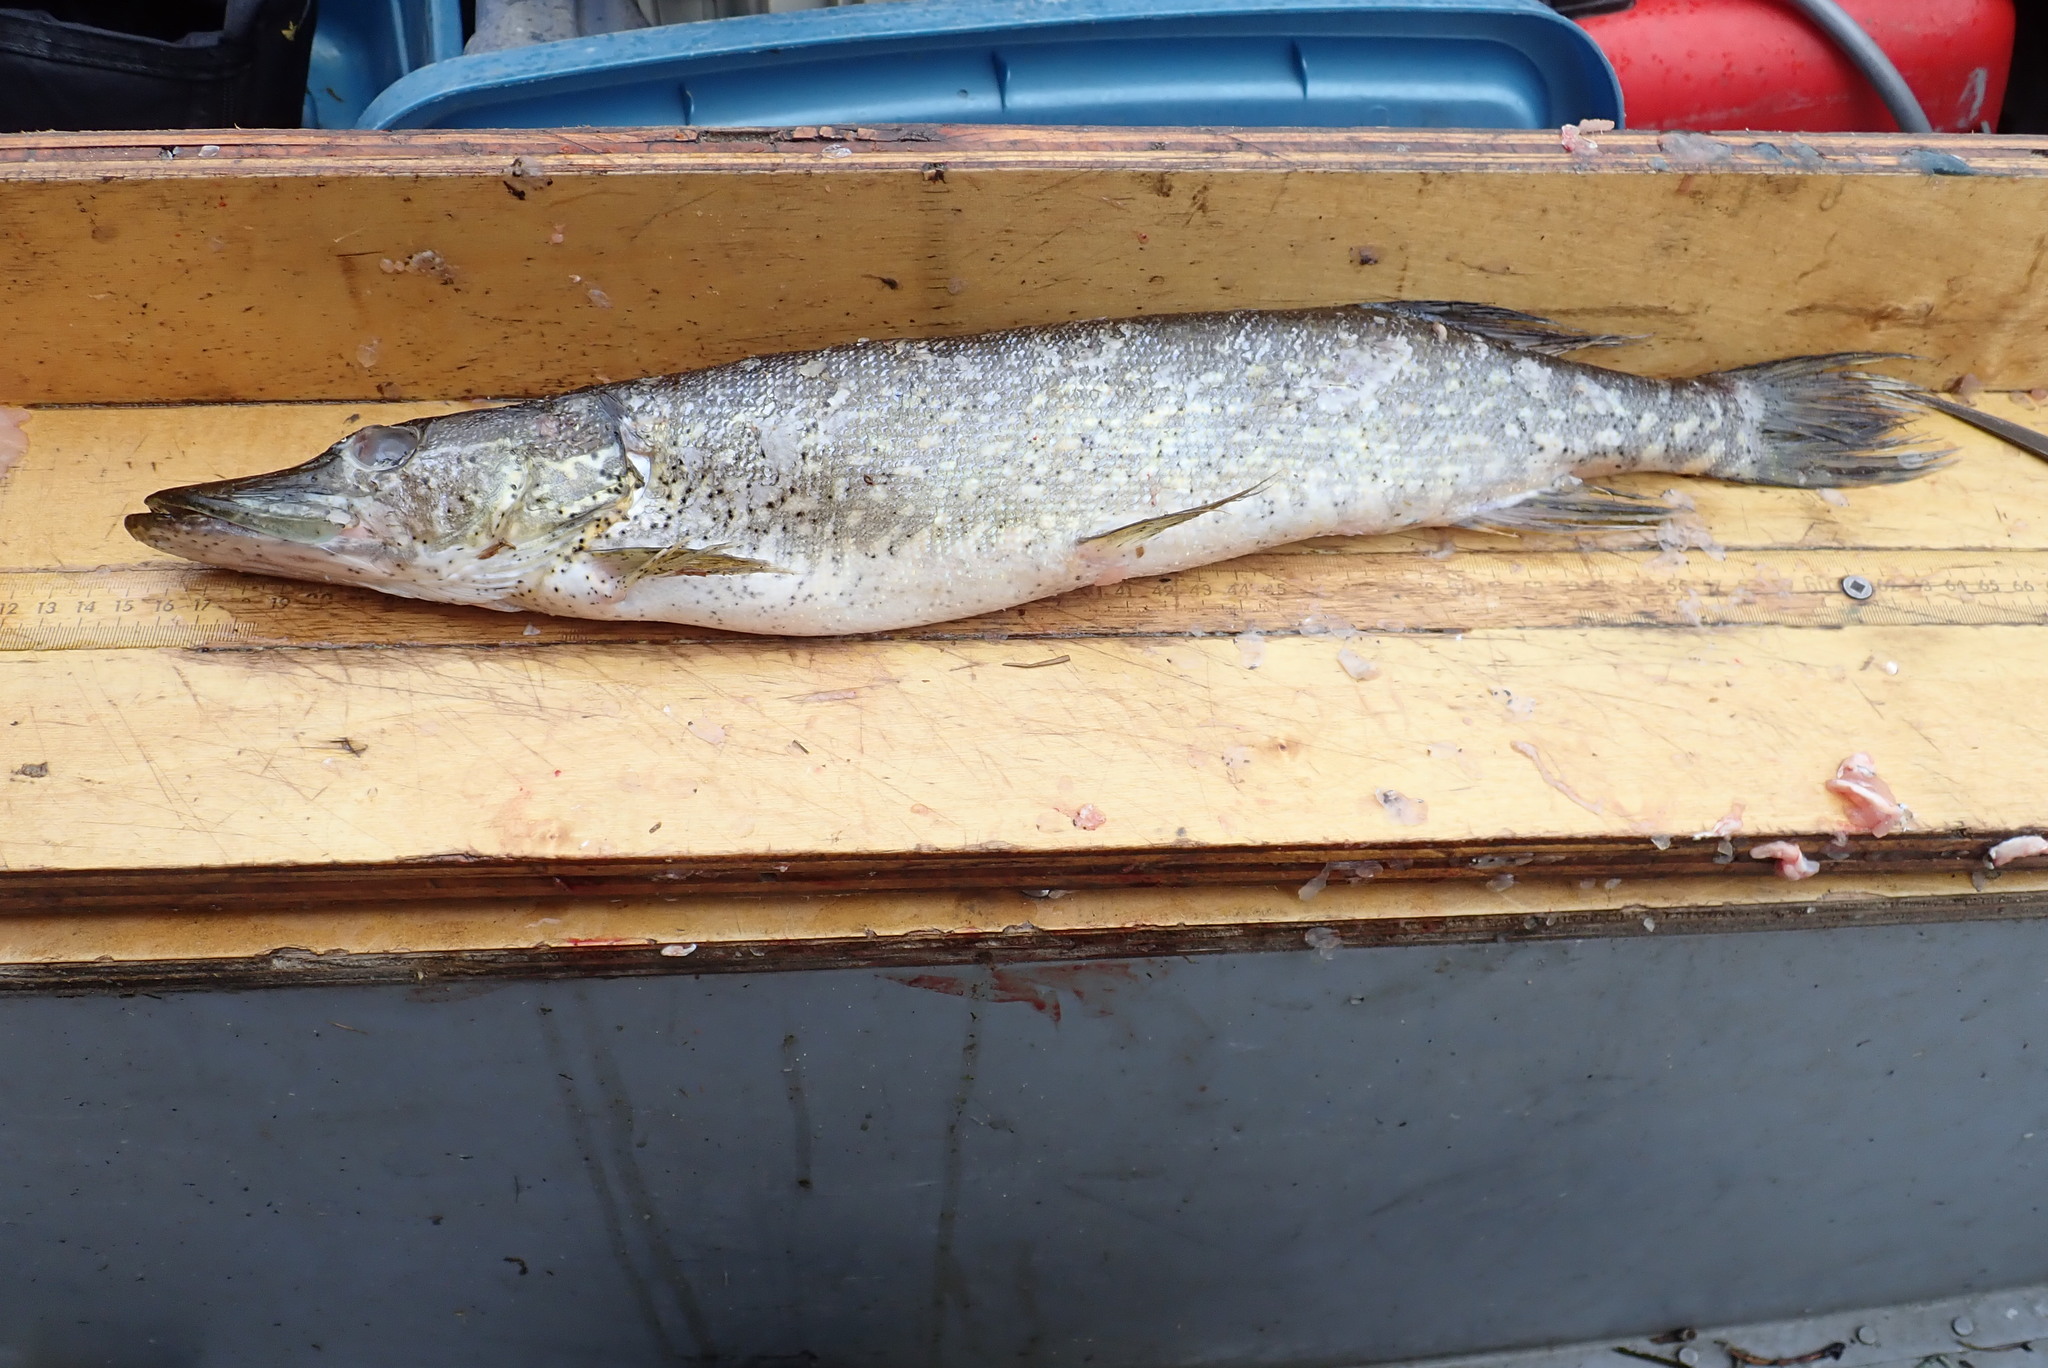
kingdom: Animalia
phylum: Platyhelminthes
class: Trematoda
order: Diplostomida
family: Diplostomidae
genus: Neascus
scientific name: Neascus
